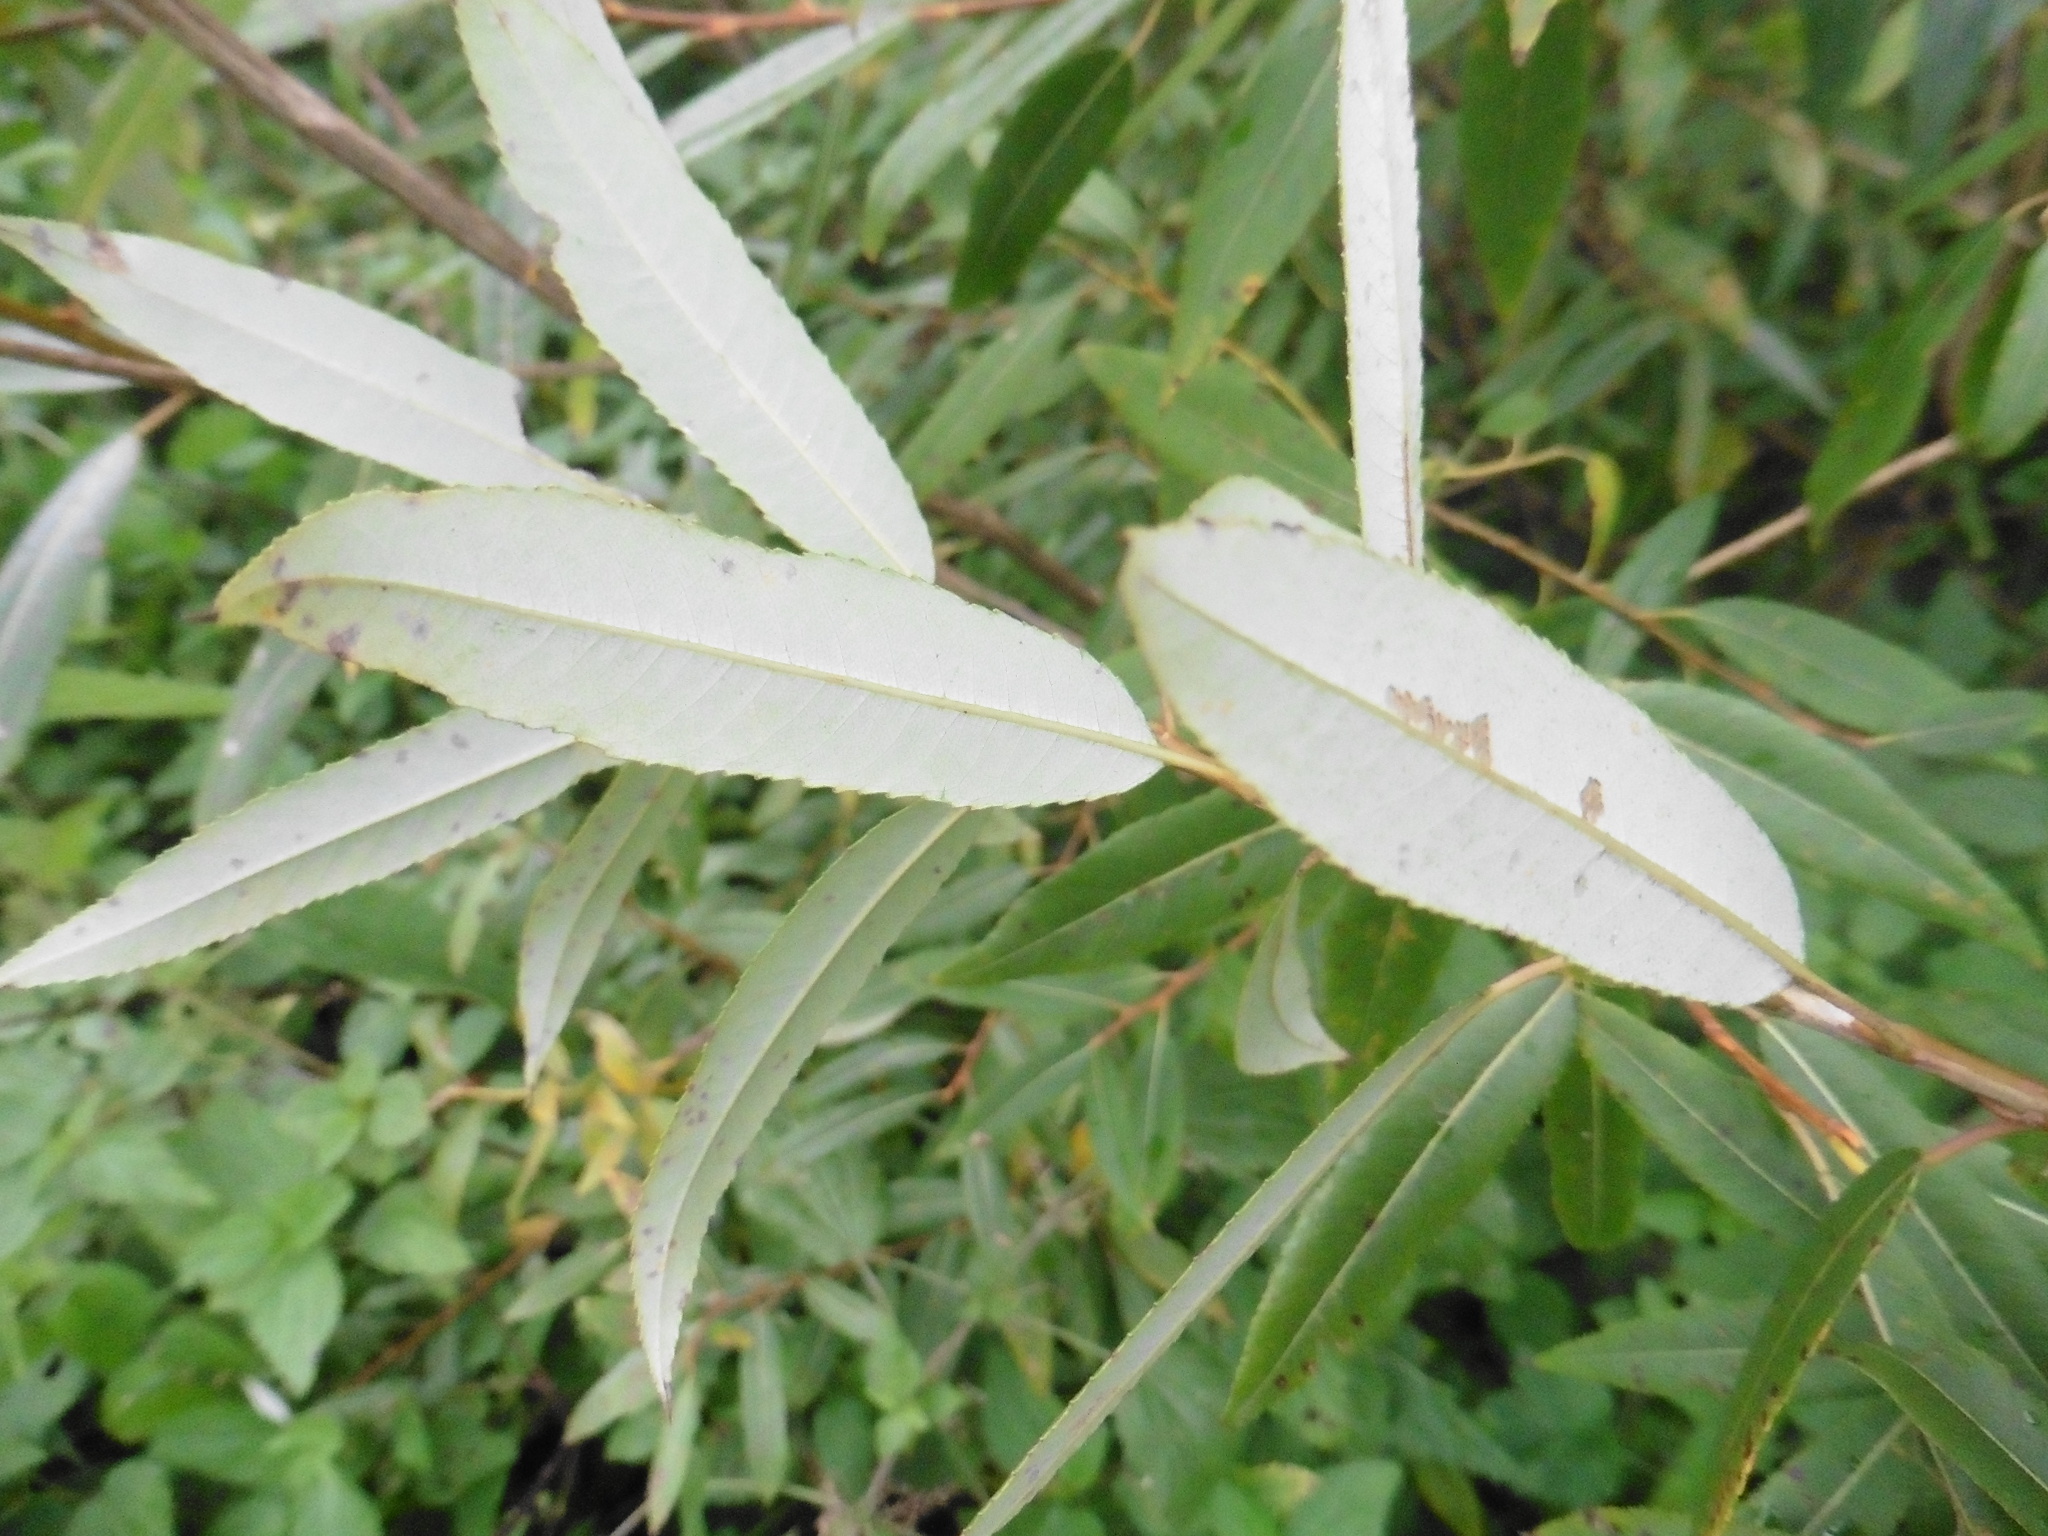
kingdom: Plantae
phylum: Tracheophyta
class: Magnoliopsida
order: Malpighiales
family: Salicaceae
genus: Salix
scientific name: Salix triandra
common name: Almond willow
